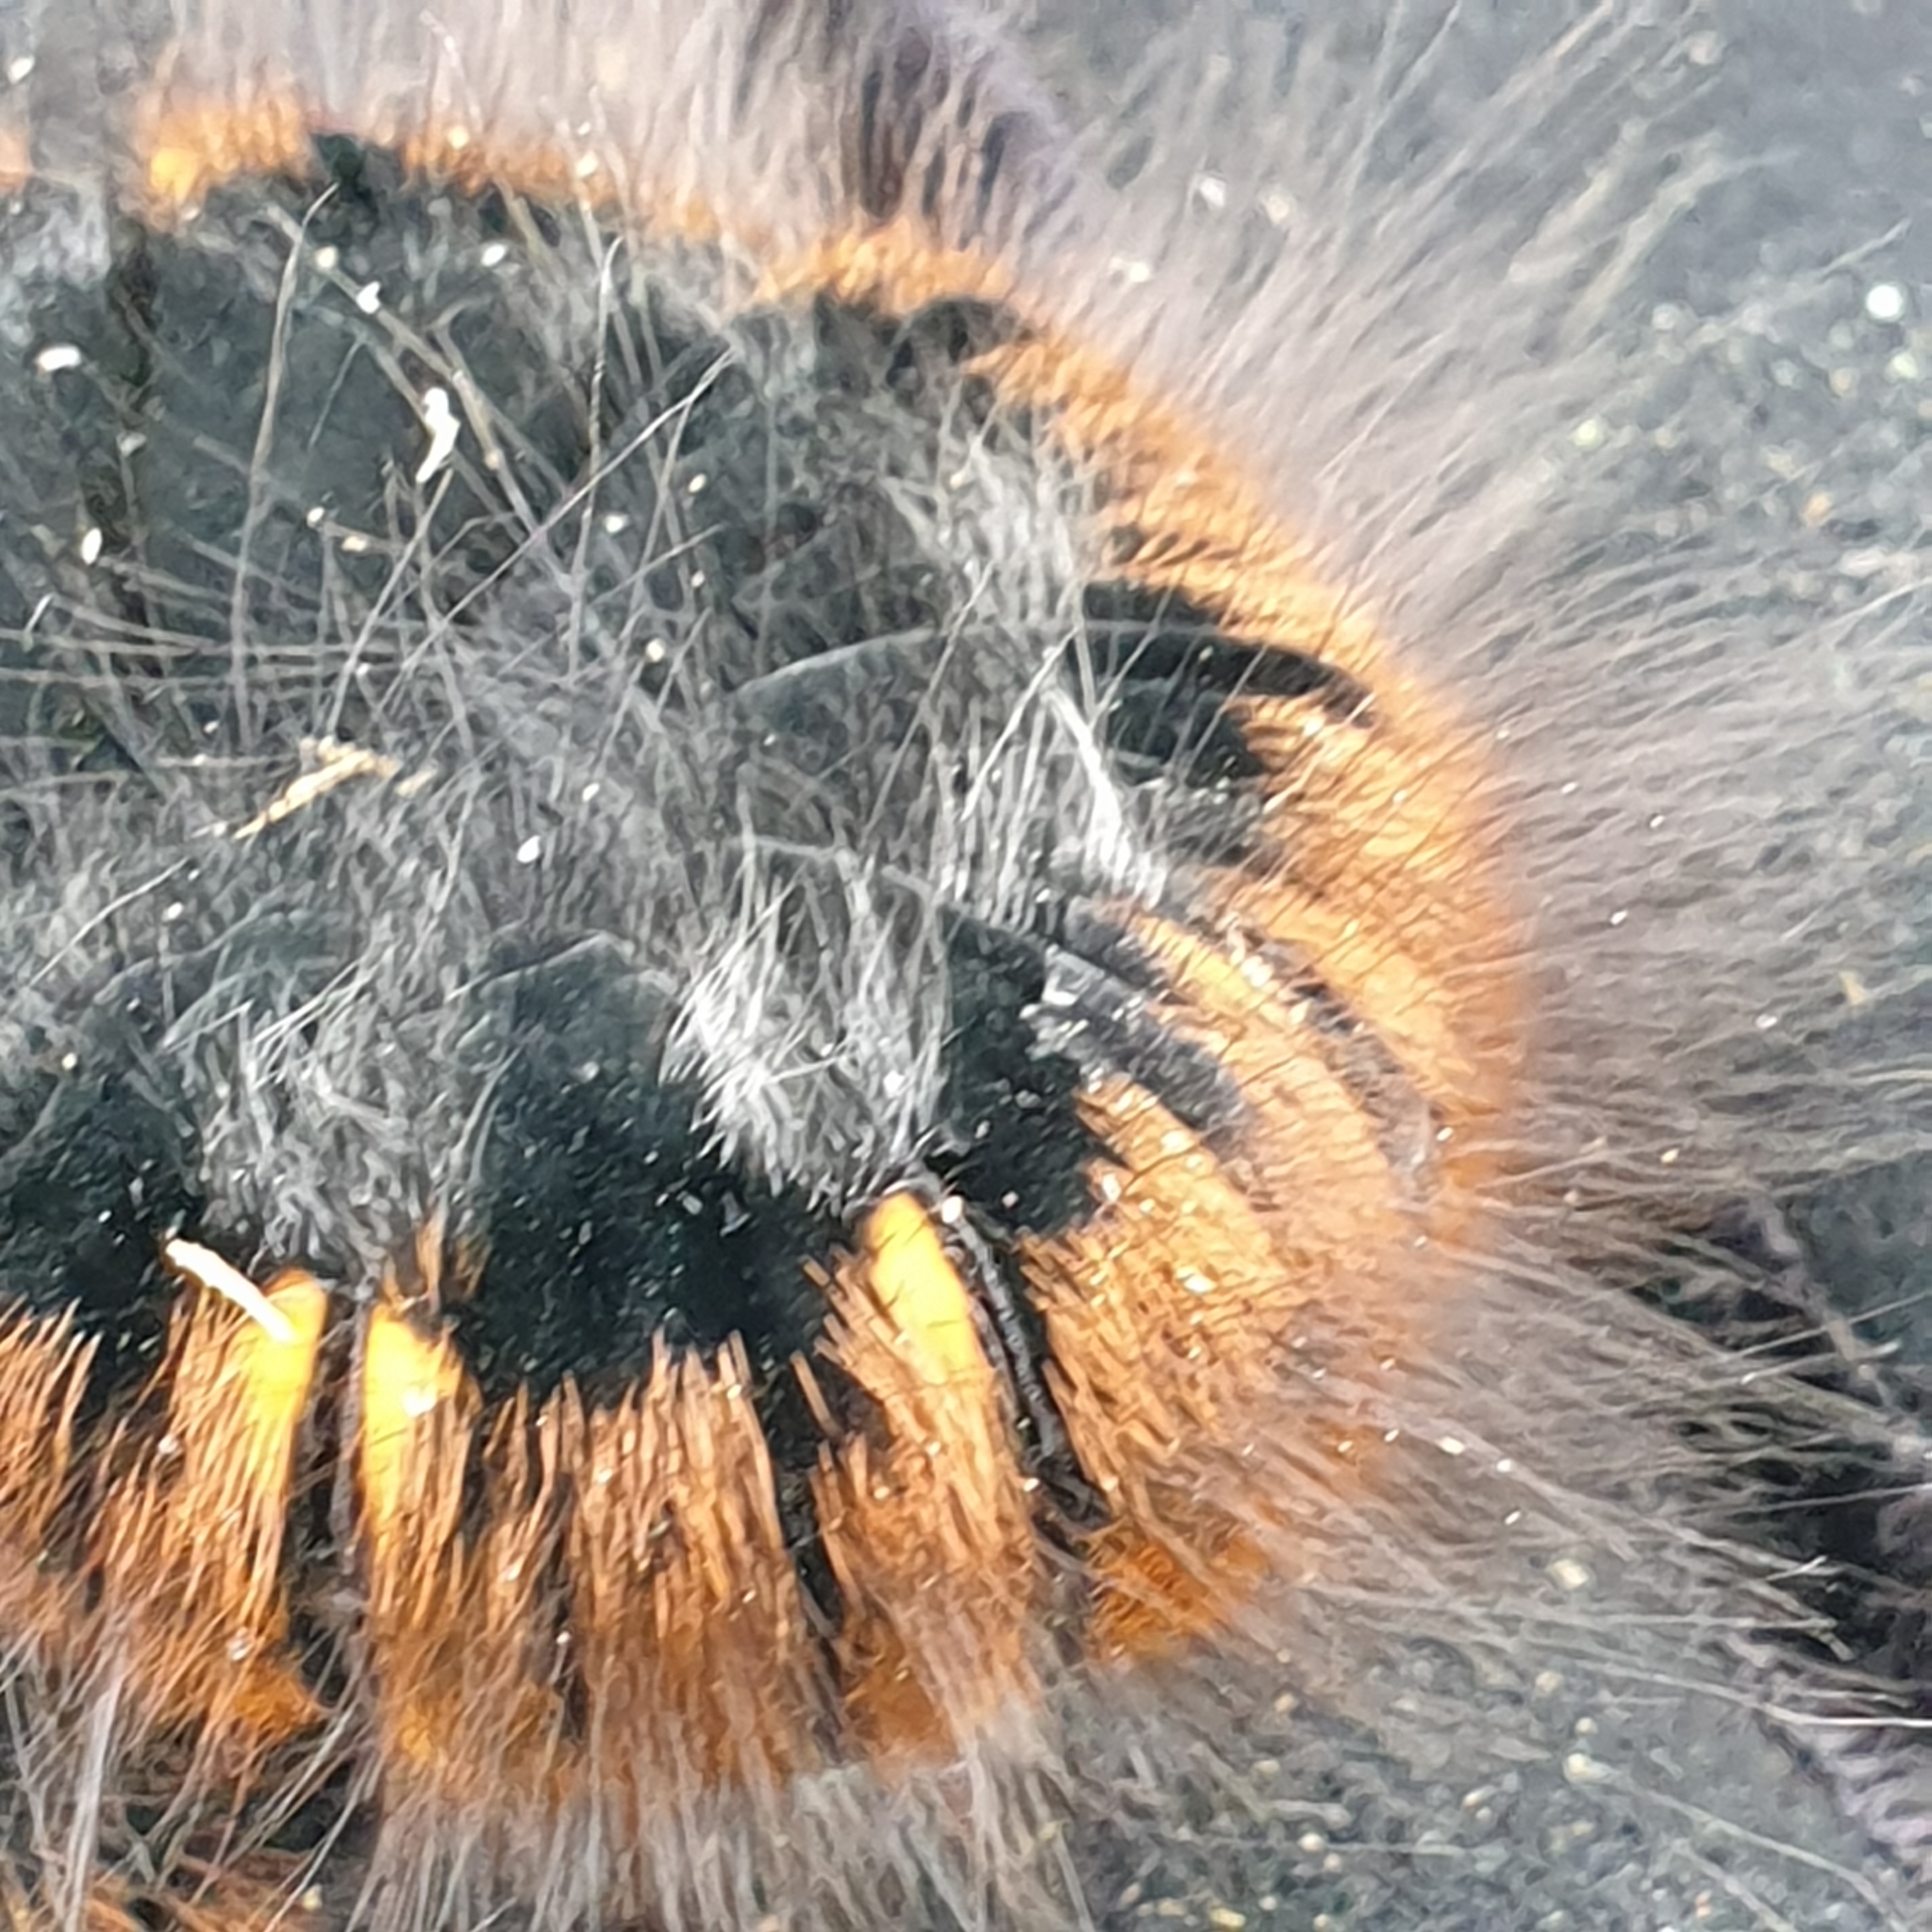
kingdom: Animalia
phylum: Arthropoda
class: Insecta
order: Lepidoptera
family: Lasiocampidae
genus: Macrothylacia
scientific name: Macrothylacia rubi
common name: Fox moth
